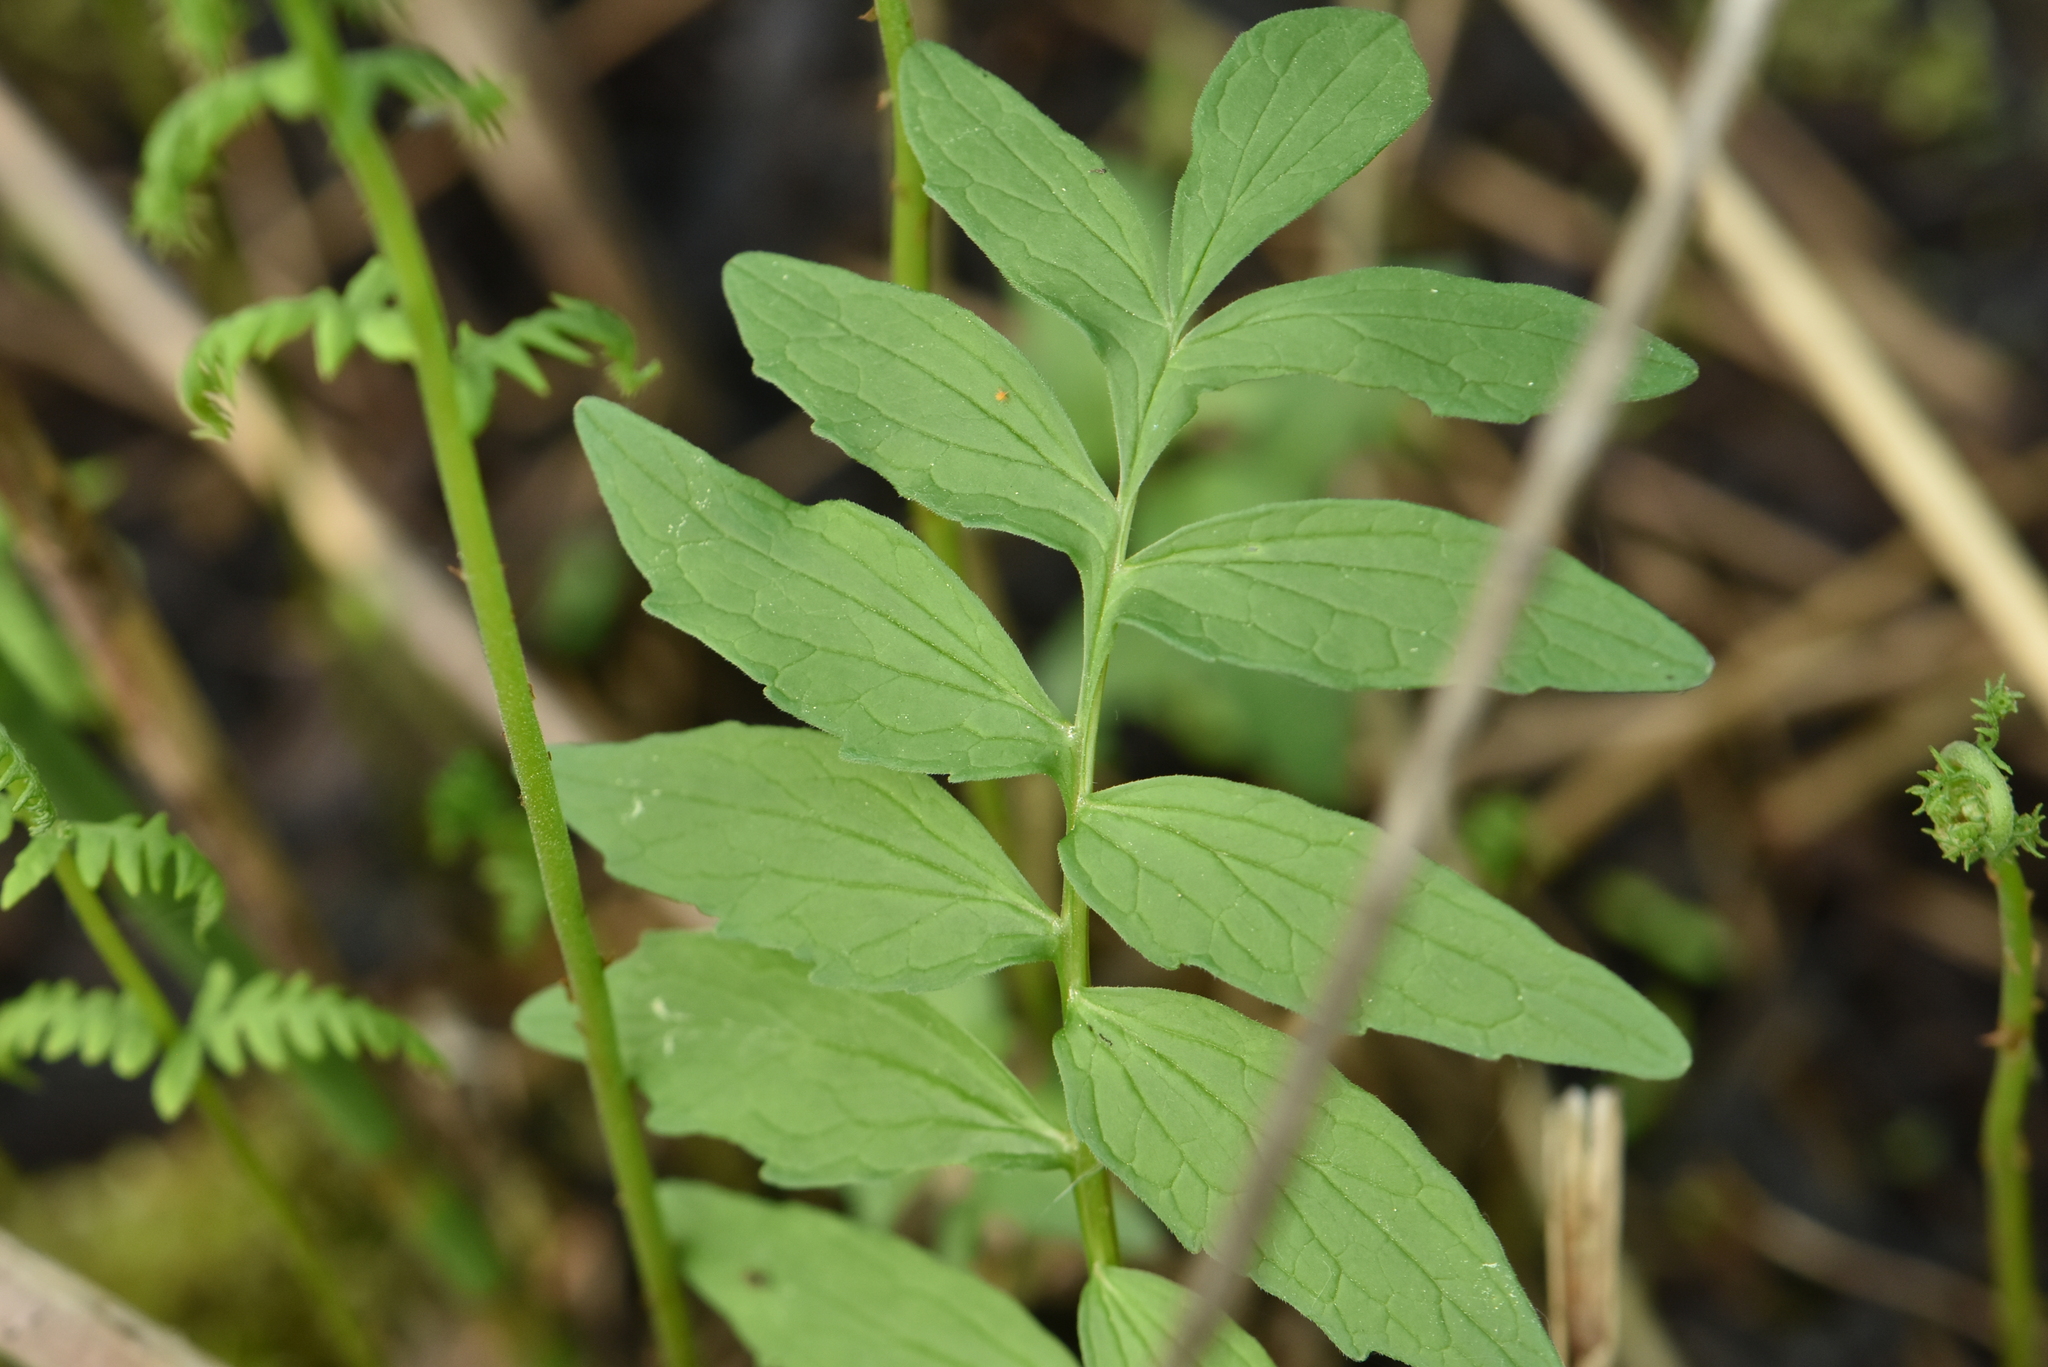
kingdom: Plantae
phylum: Tracheophyta
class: Magnoliopsida
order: Dipsacales
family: Caprifoliaceae
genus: Valeriana
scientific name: Valeriana officinalis
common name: Common valerian
